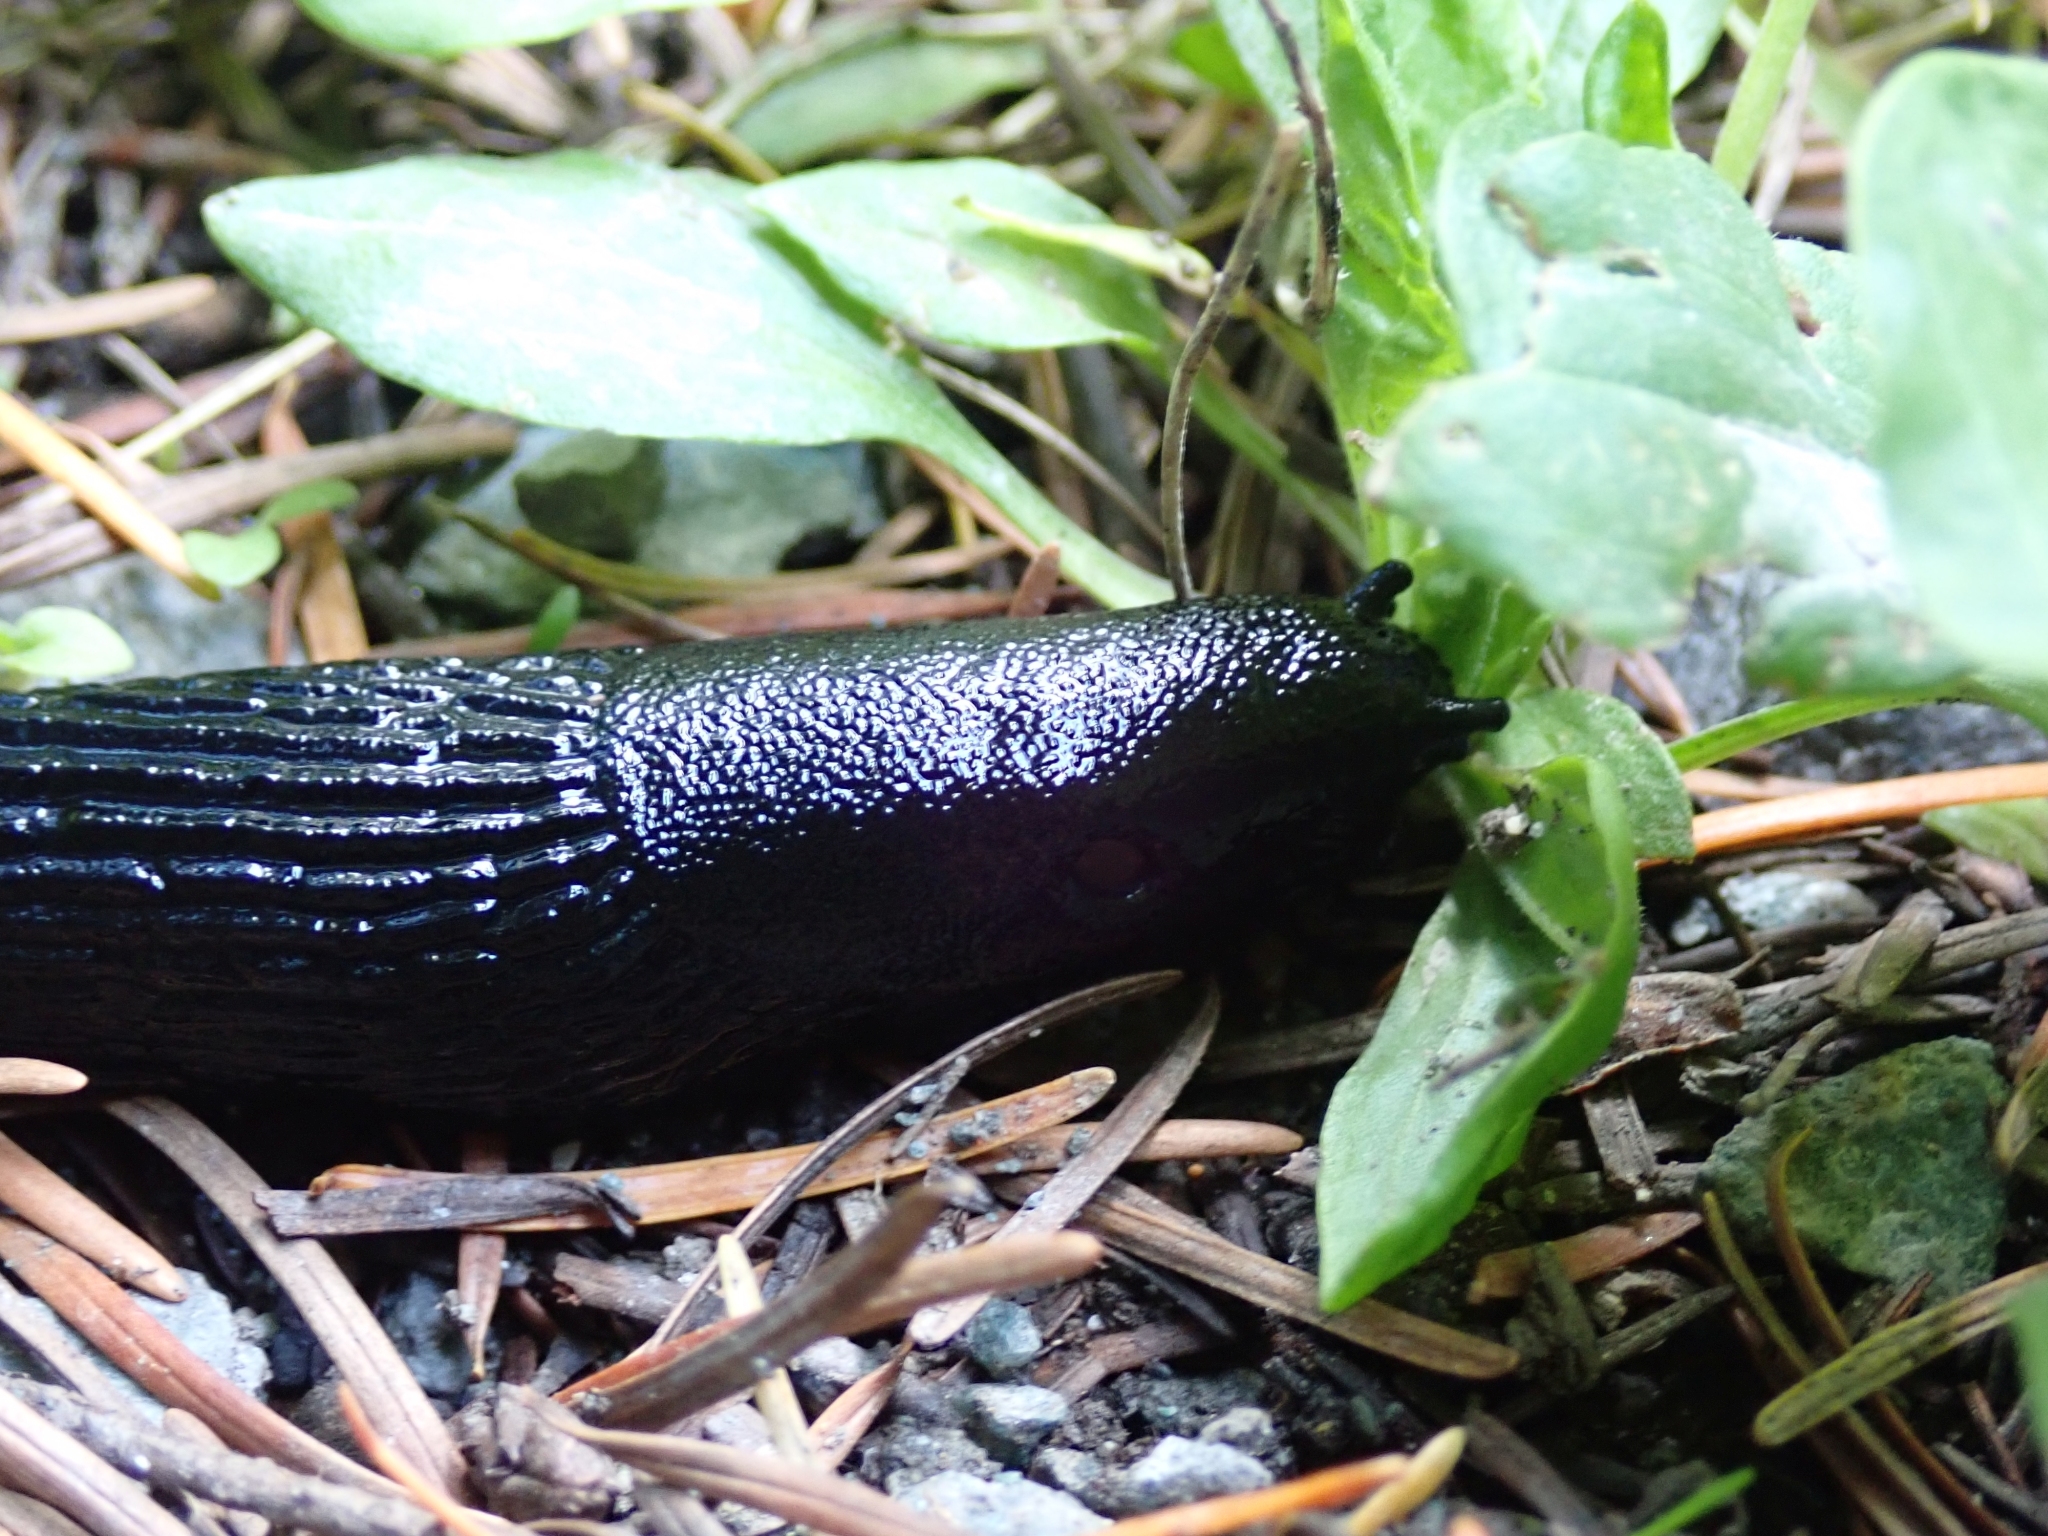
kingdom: Animalia
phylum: Mollusca
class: Gastropoda
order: Stylommatophora
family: Arionidae
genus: Arion
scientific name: Arion
